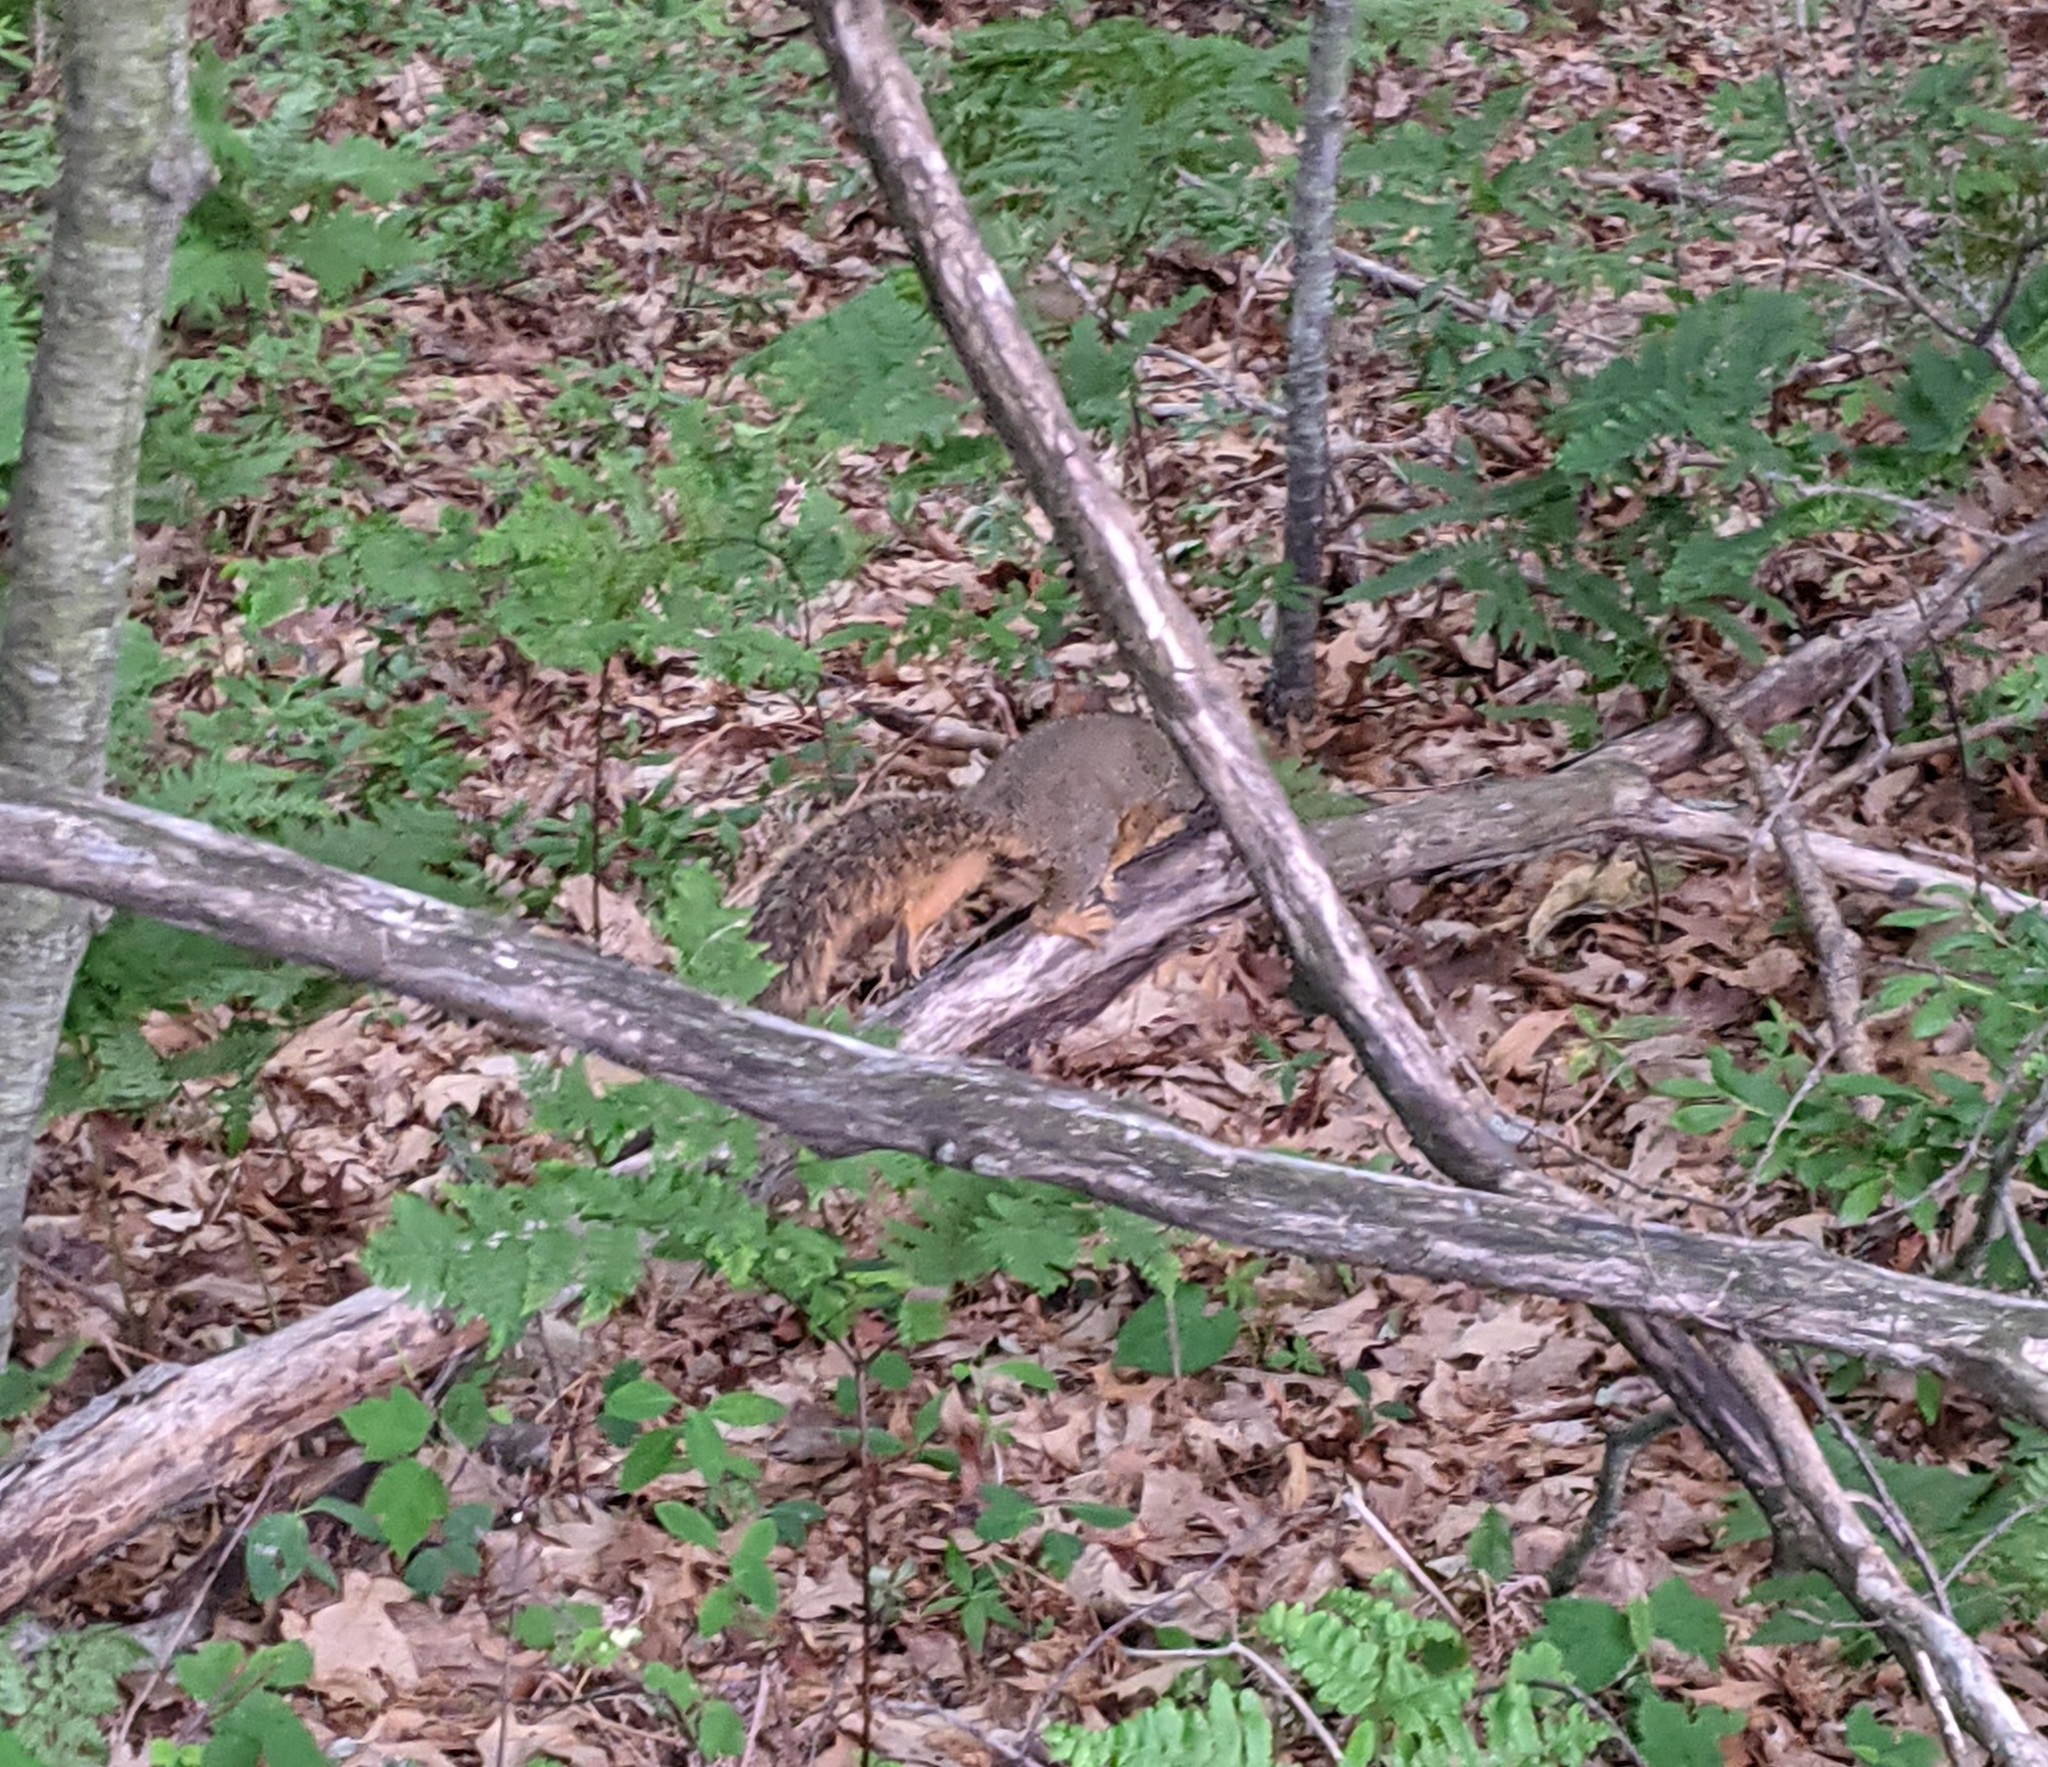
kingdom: Animalia
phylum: Chordata
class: Mammalia
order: Rodentia
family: Sciuridae
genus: Sciurus
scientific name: Sciurus niger
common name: Fox squirrel
